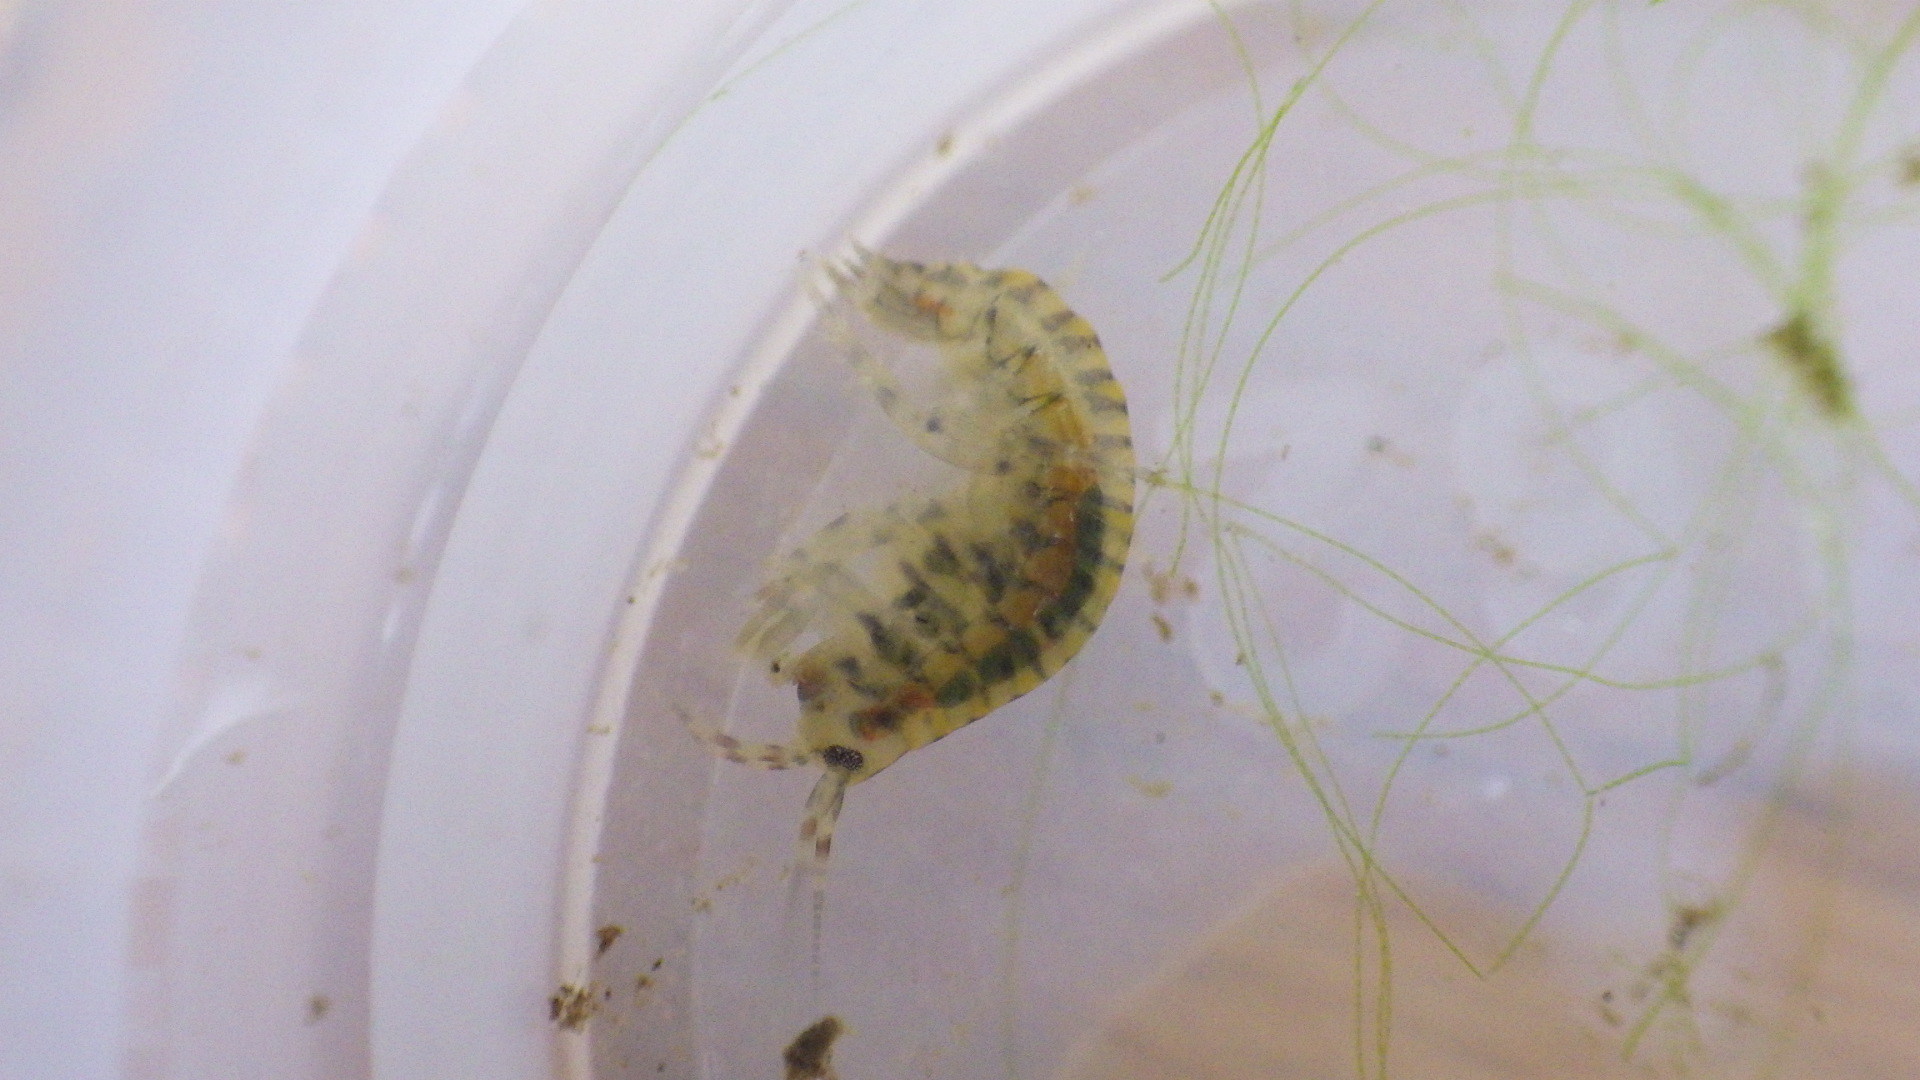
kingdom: Animalia
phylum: Arthropoda
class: Malacostraca
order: Amphipoda
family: Gammaridae
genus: Gammarus
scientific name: Gammarus fasciatus
